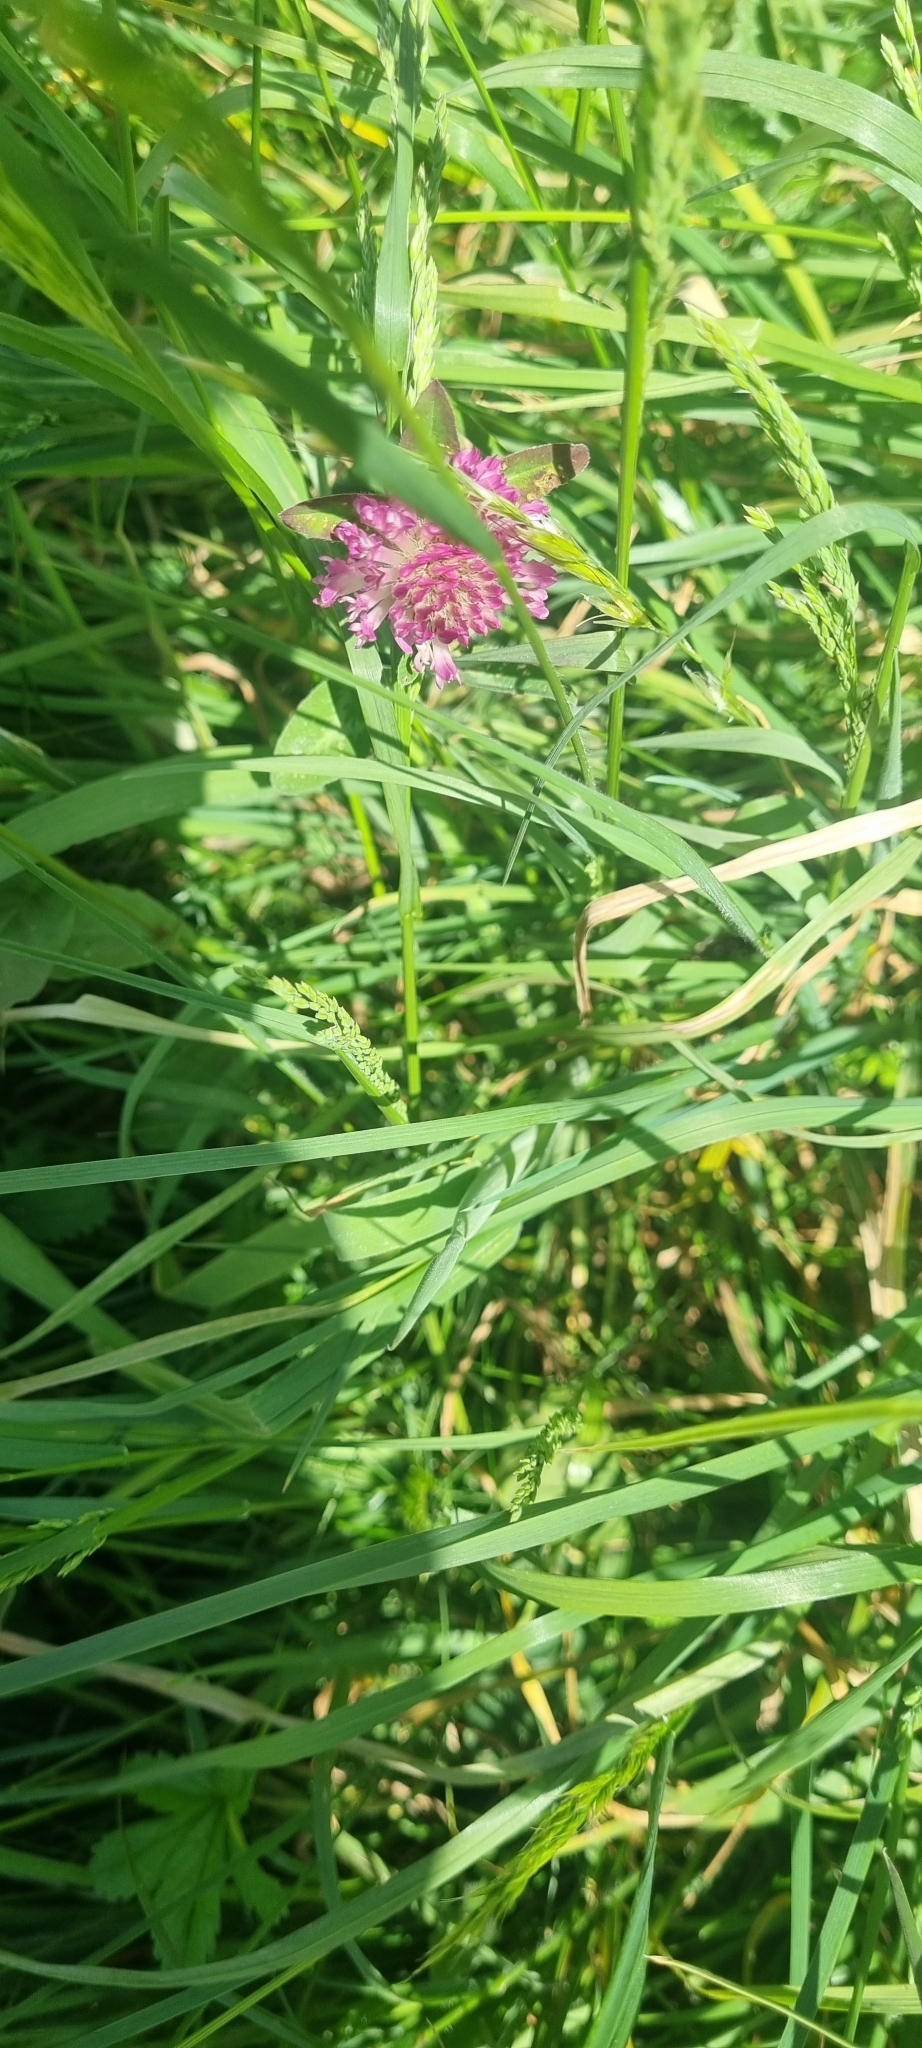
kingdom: Plantae
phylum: Tracheophyta
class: Magnoliopsida
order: Fabales
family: Fabaceae
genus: Trifolium
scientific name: Trifolium pratense
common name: Red clover
